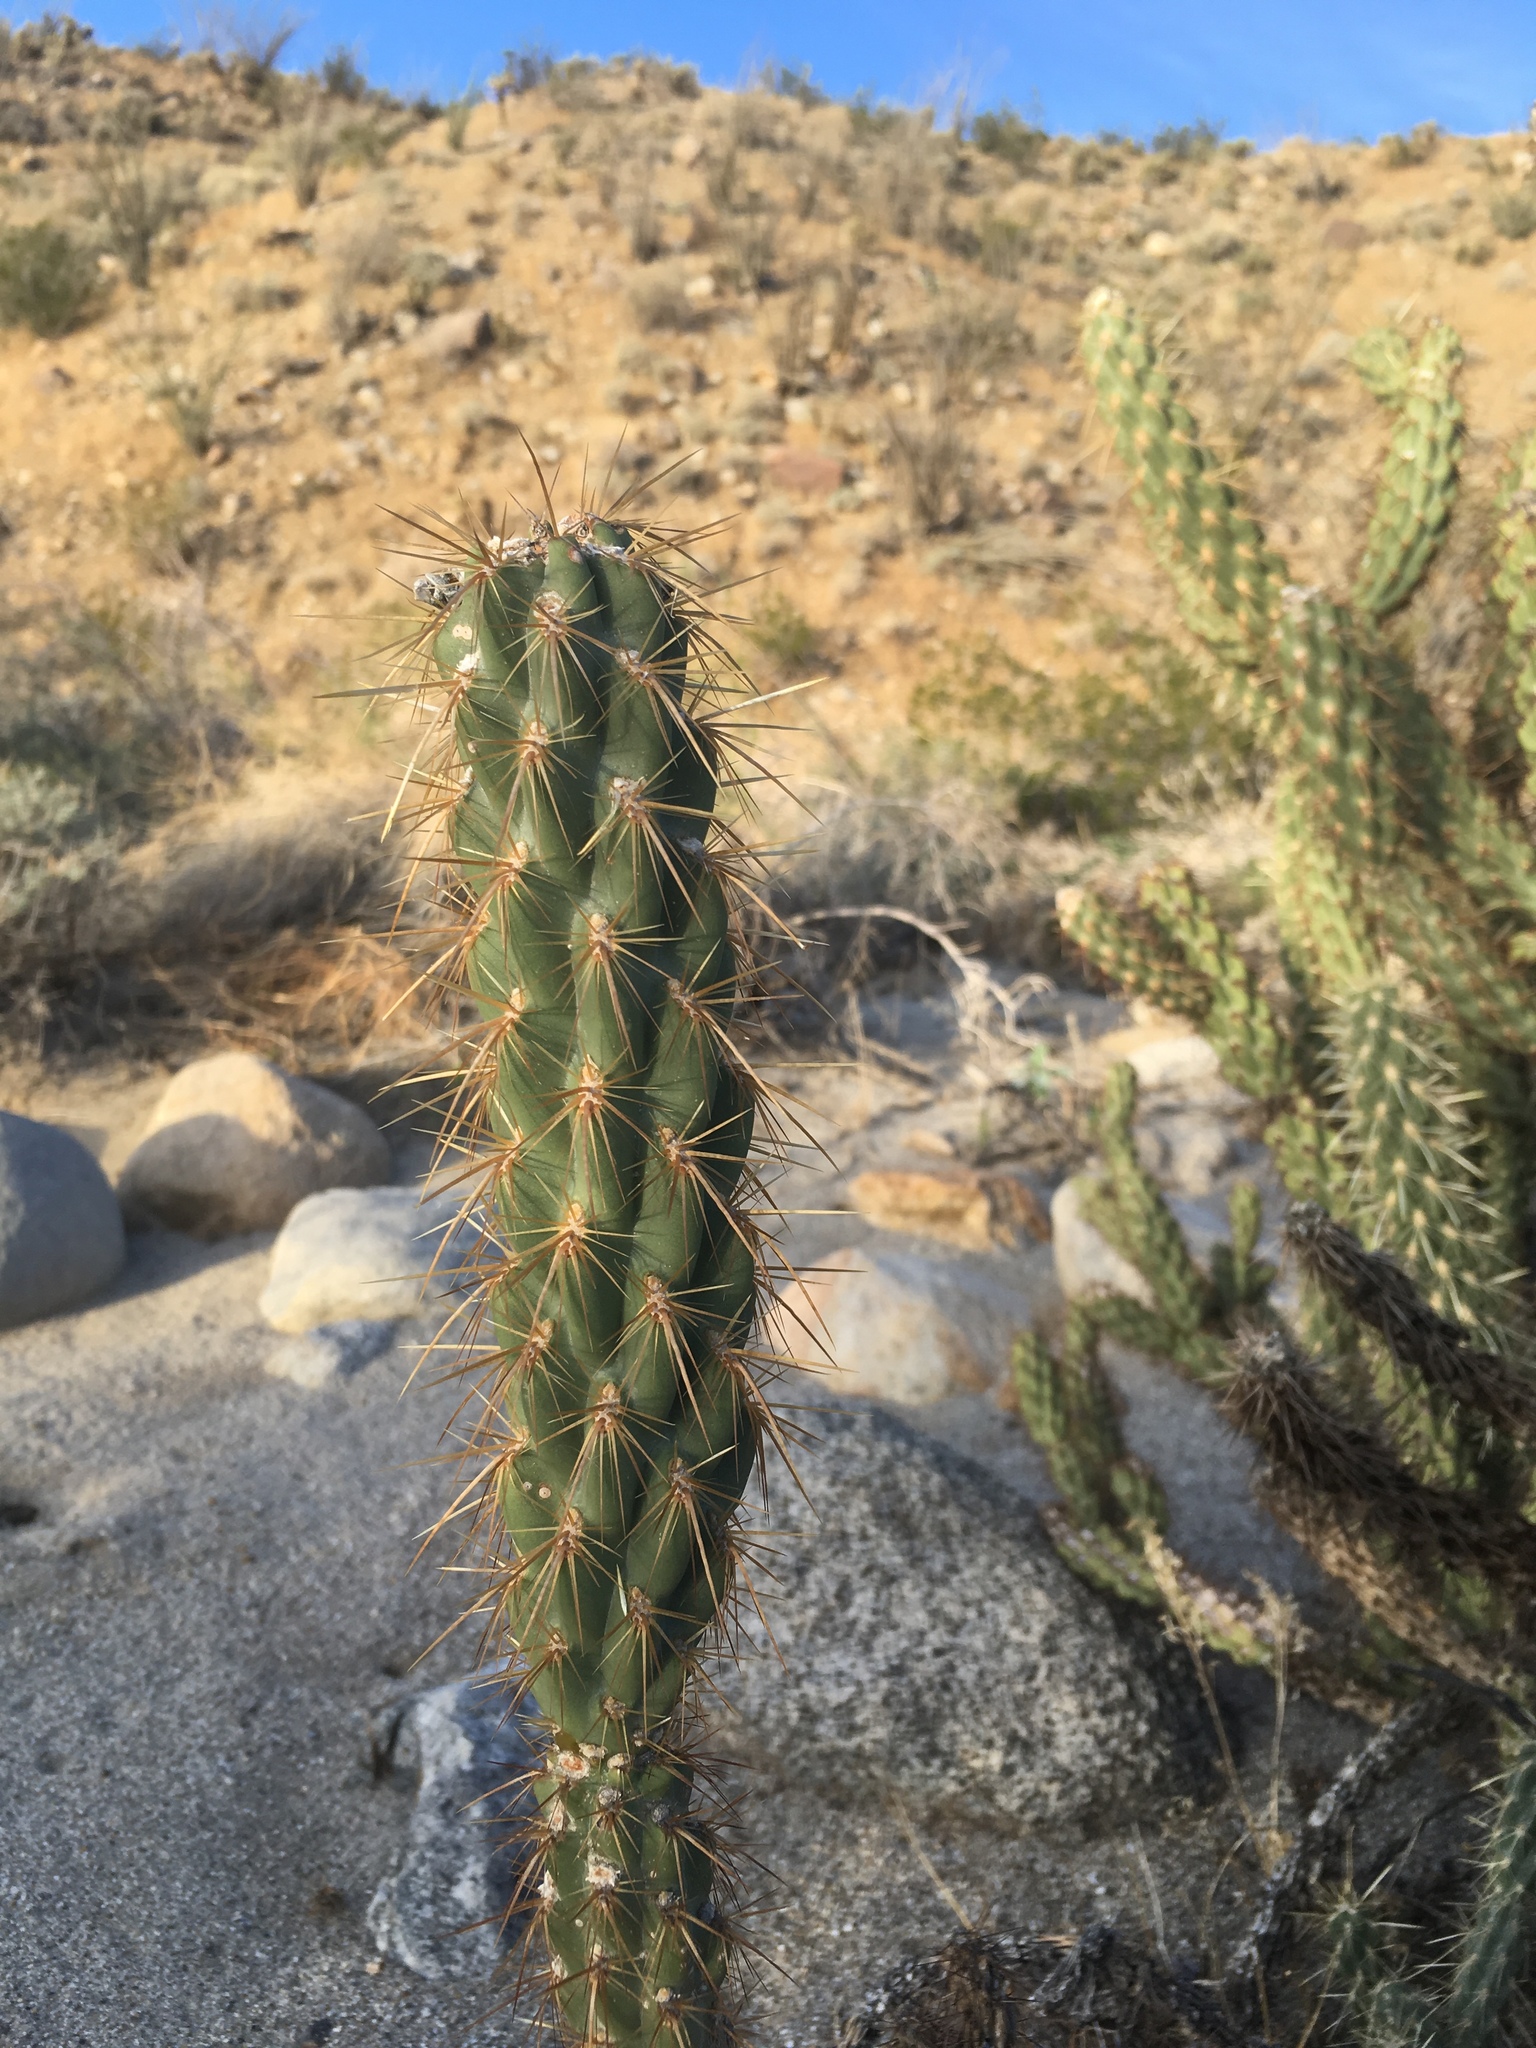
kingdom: Plantae
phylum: Tracheophyta
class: Magnoliopsida
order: Caryophyllales
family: Cactaceae
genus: Cylindropuntia
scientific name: Cylindropuntia ganderi
